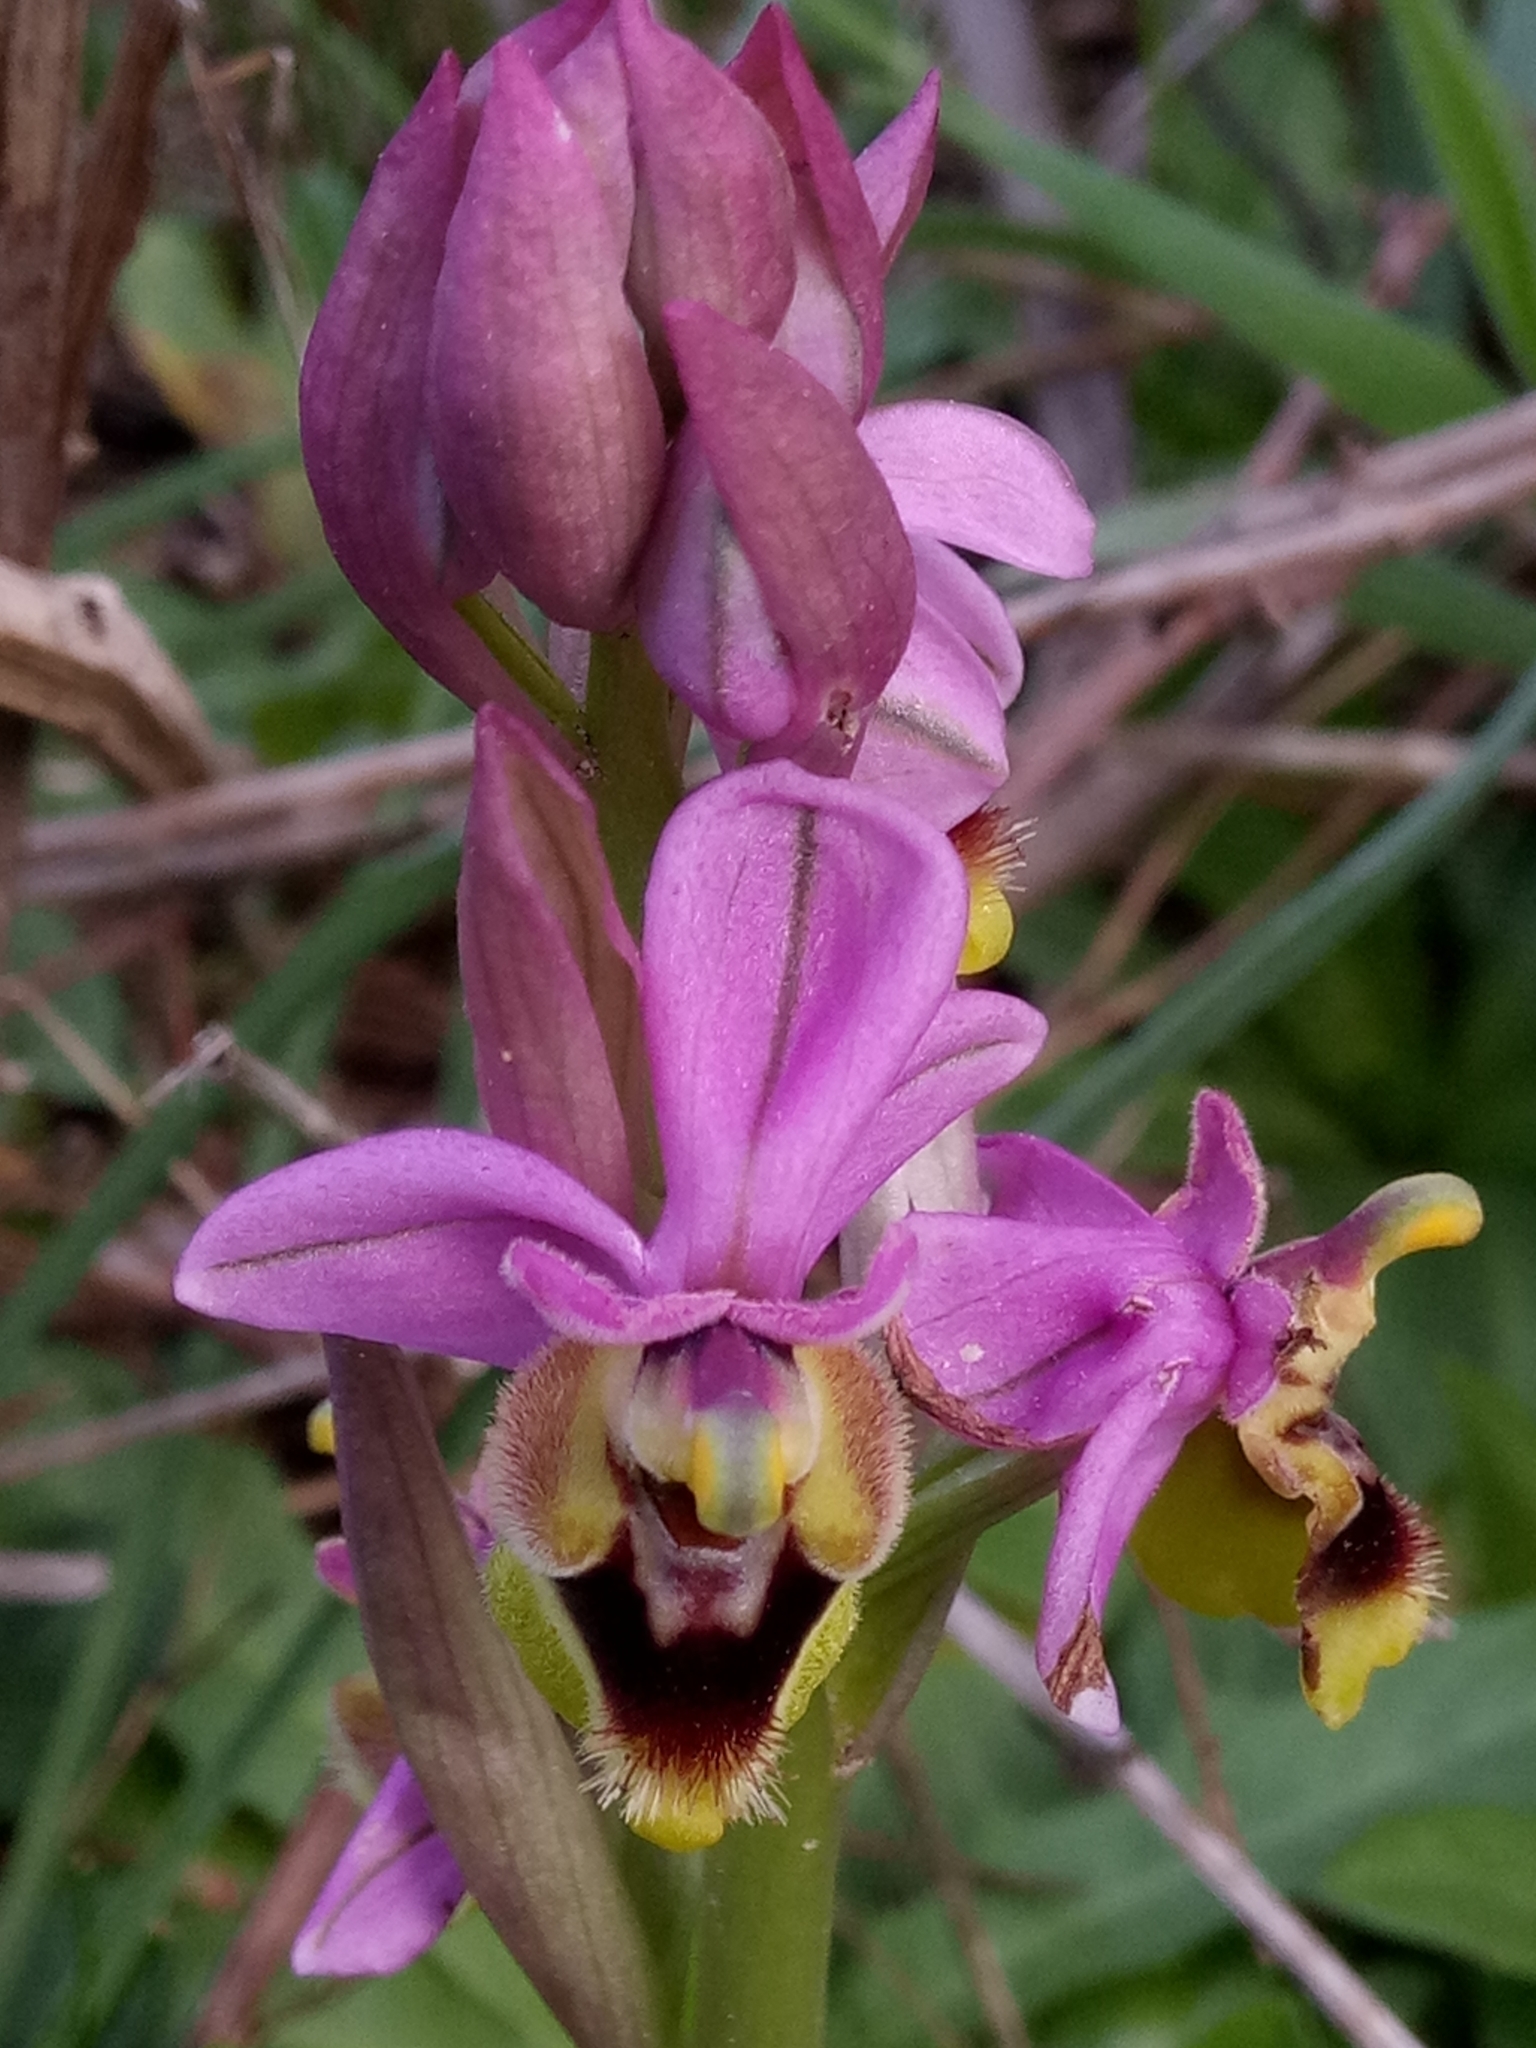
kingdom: Plantae
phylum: Tracheophyta
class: Liliopsida
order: Asparagales
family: Orchidaceae
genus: Ophrys
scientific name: Ophrys tenthredinifera
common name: Sawfly orchid
